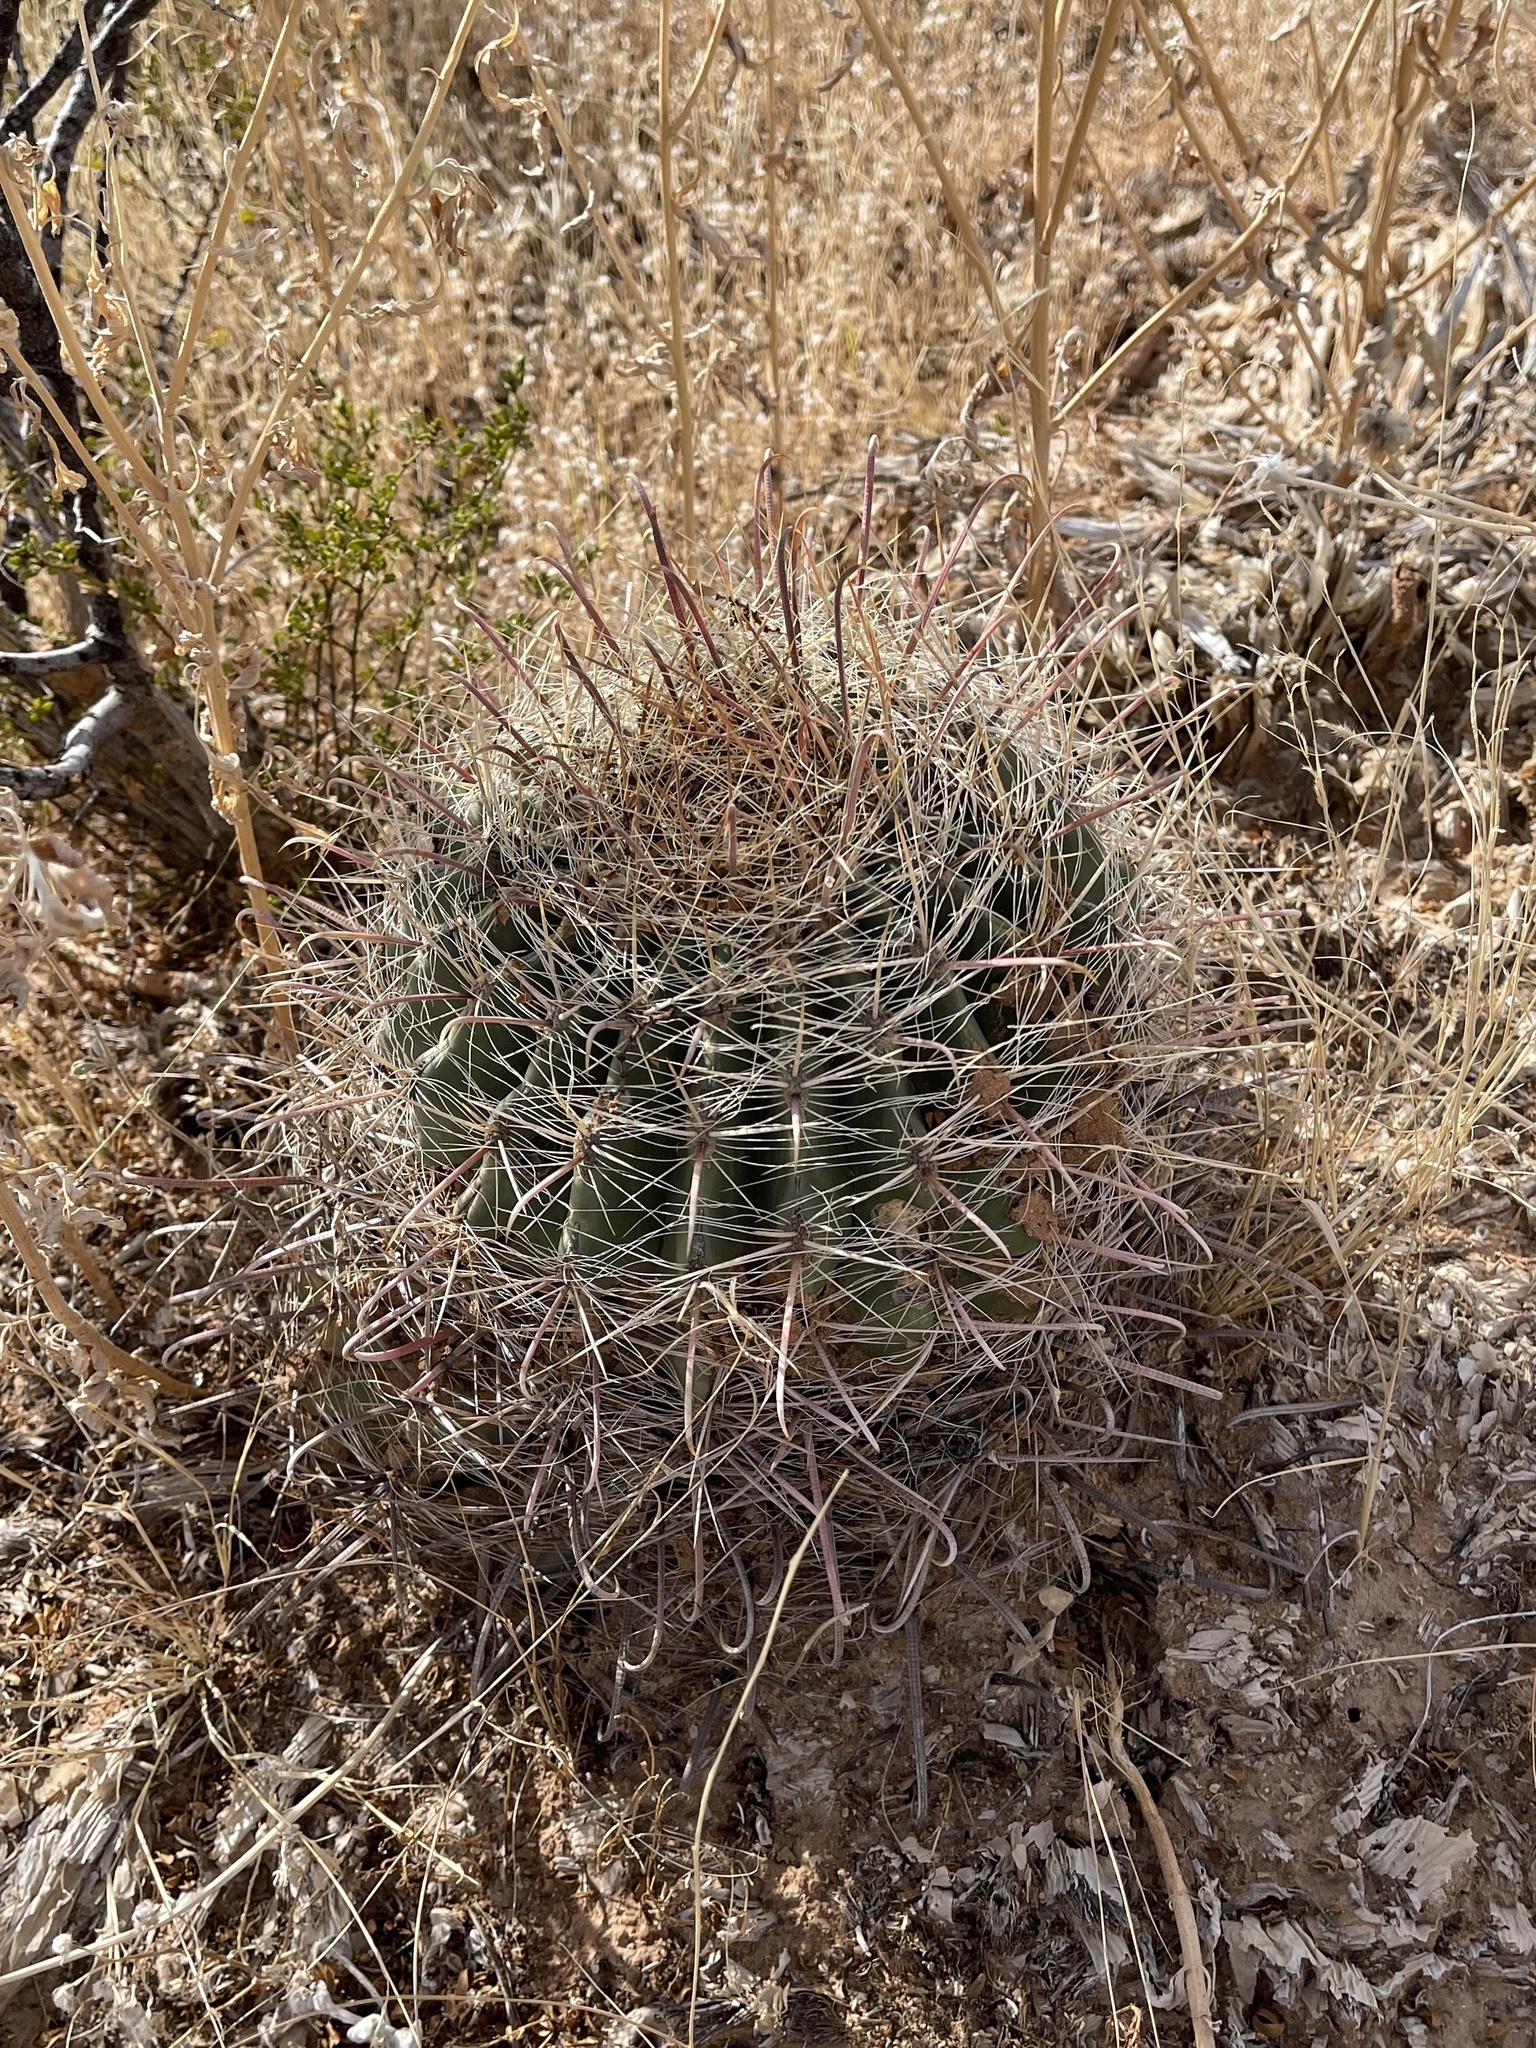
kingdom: Plantae
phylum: Tracheophyta
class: Magnoliopsida
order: Caryophyllales
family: Cactaceae
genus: Ferocactus
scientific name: Ferocactus wislizeni
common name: Candy barrel cactus
